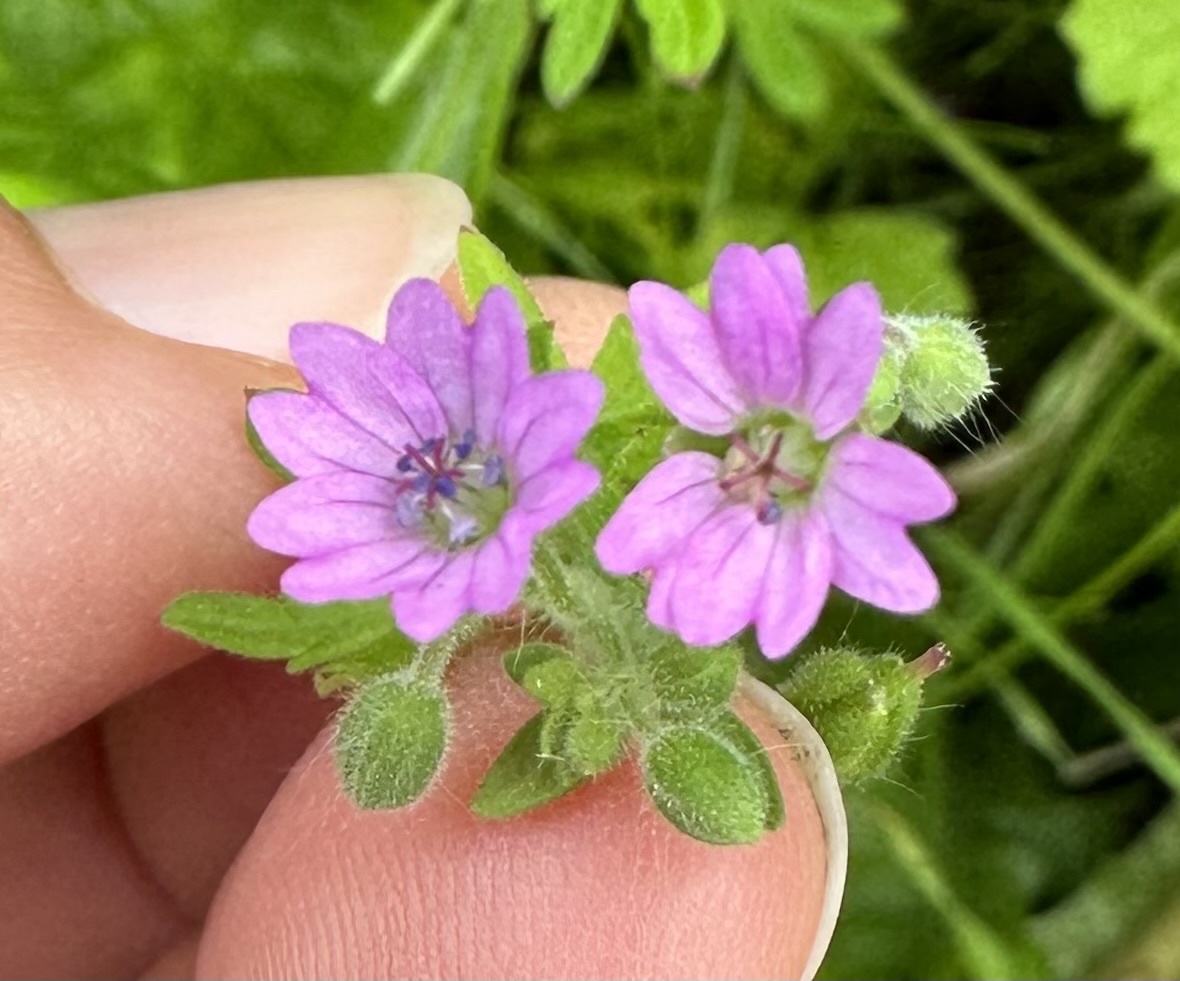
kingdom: Plantae
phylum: Tracheophyta
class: Magnoliopsida
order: Geraniales
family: Geraniaceae
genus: Geranium
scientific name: Geranium molle
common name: Dove's-foot crane's-bill
